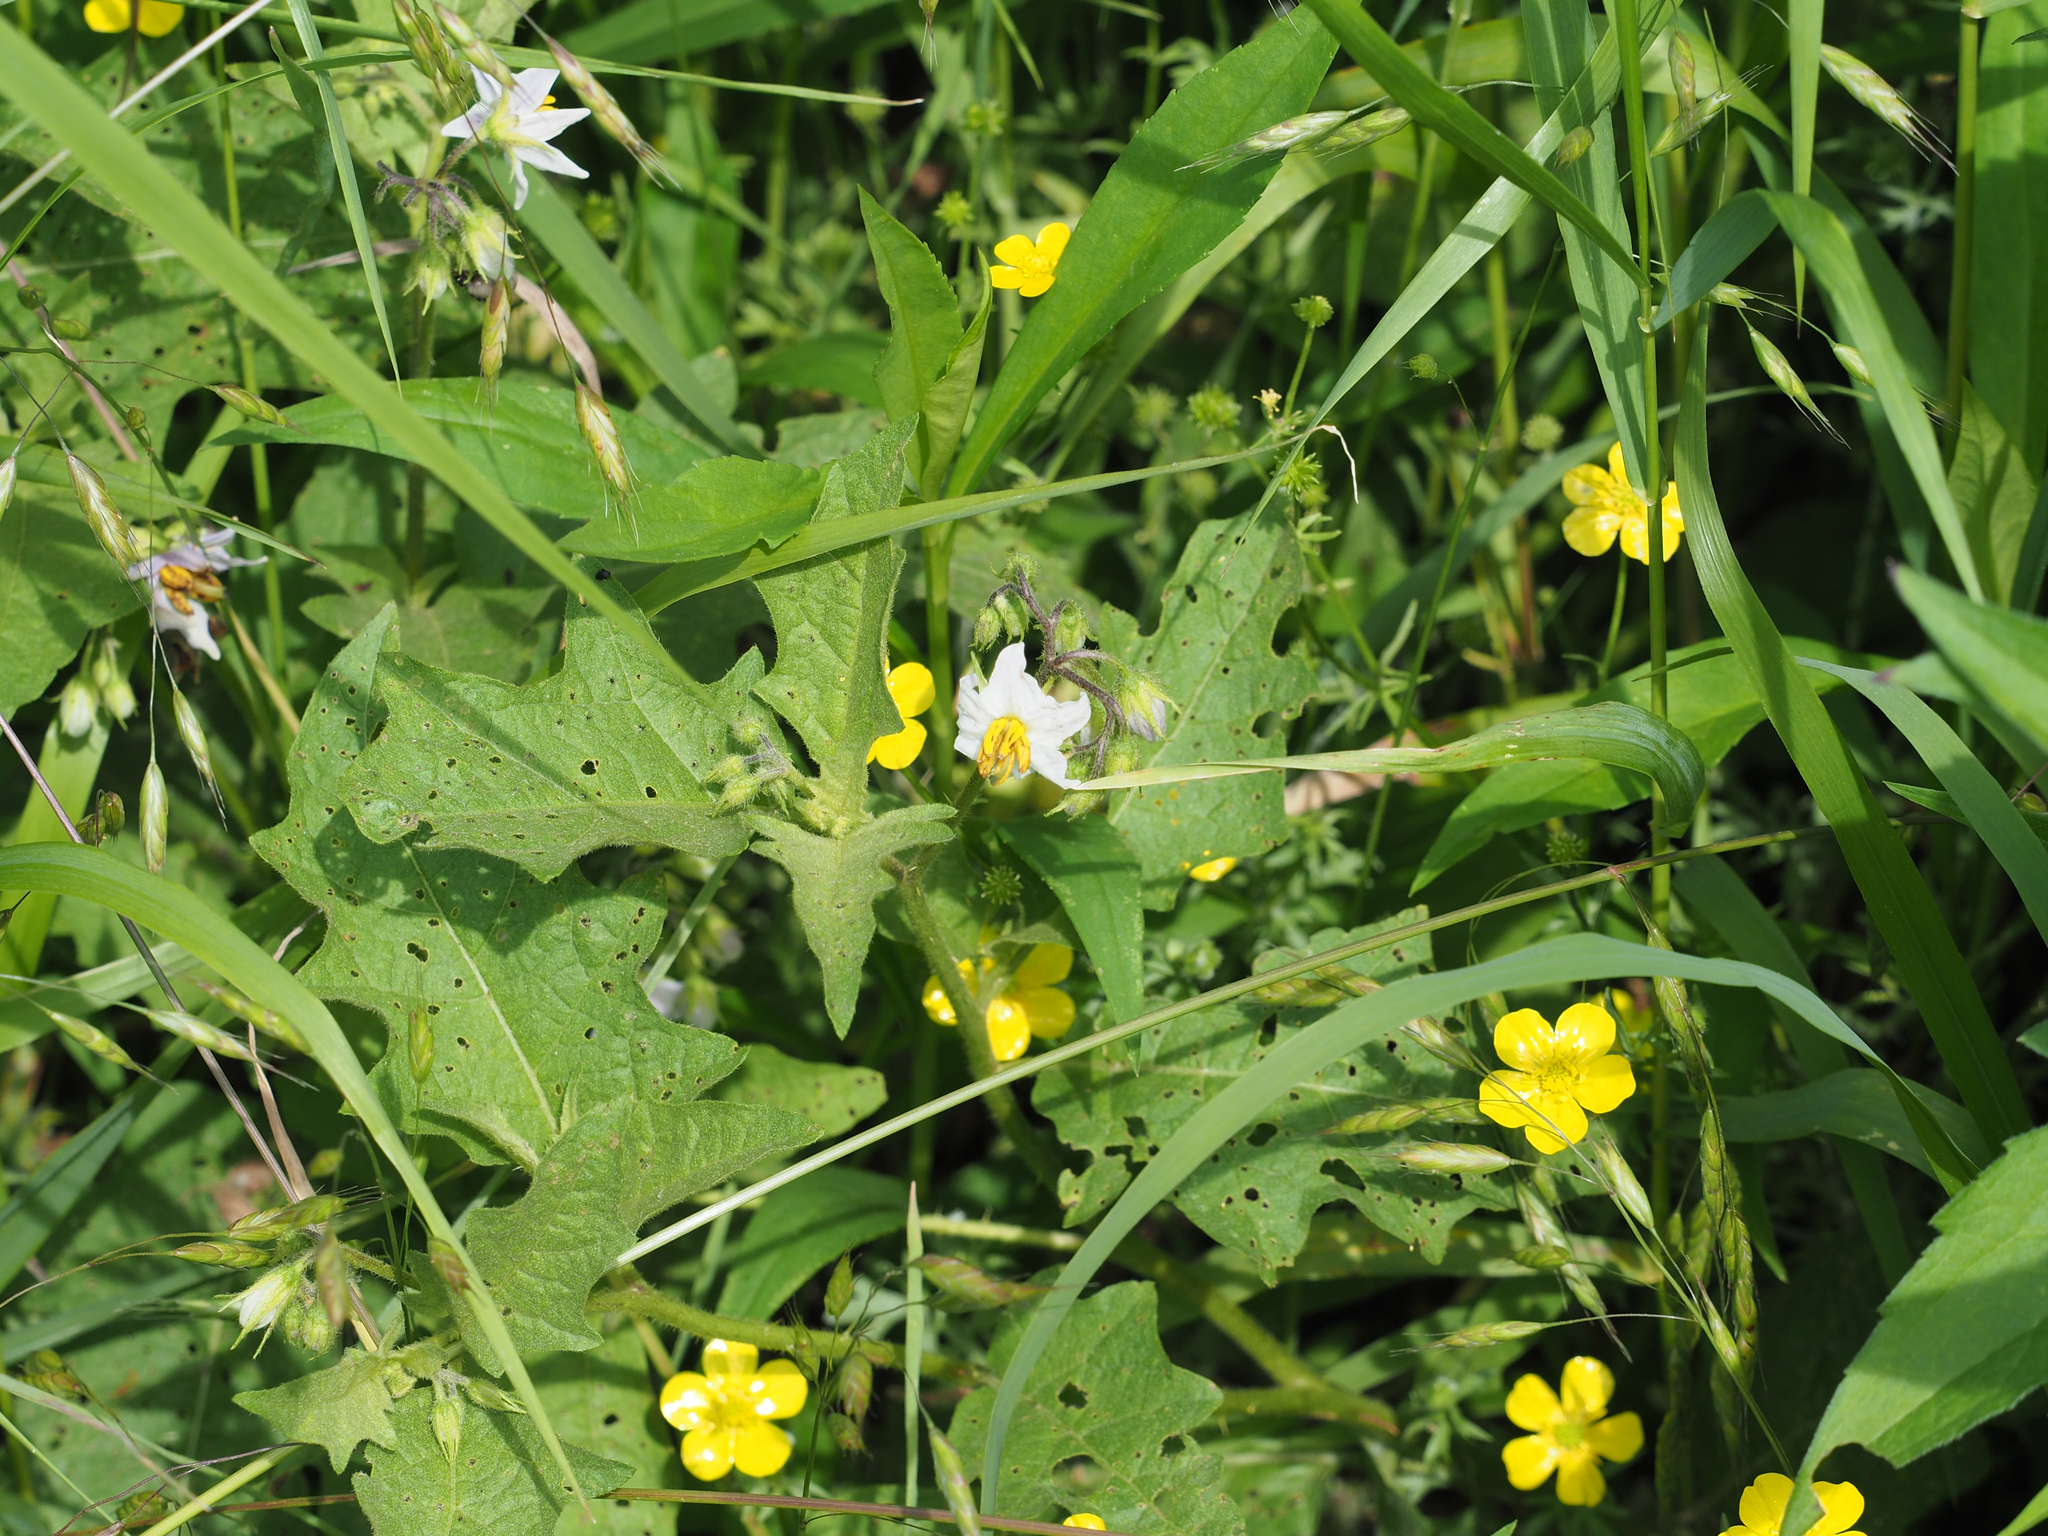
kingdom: Plantae
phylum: Tracheophyta
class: Magnoliopsida
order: Solanales
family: Solanaceae
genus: Solanum
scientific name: Solanum carolinense
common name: Horse-nettle
